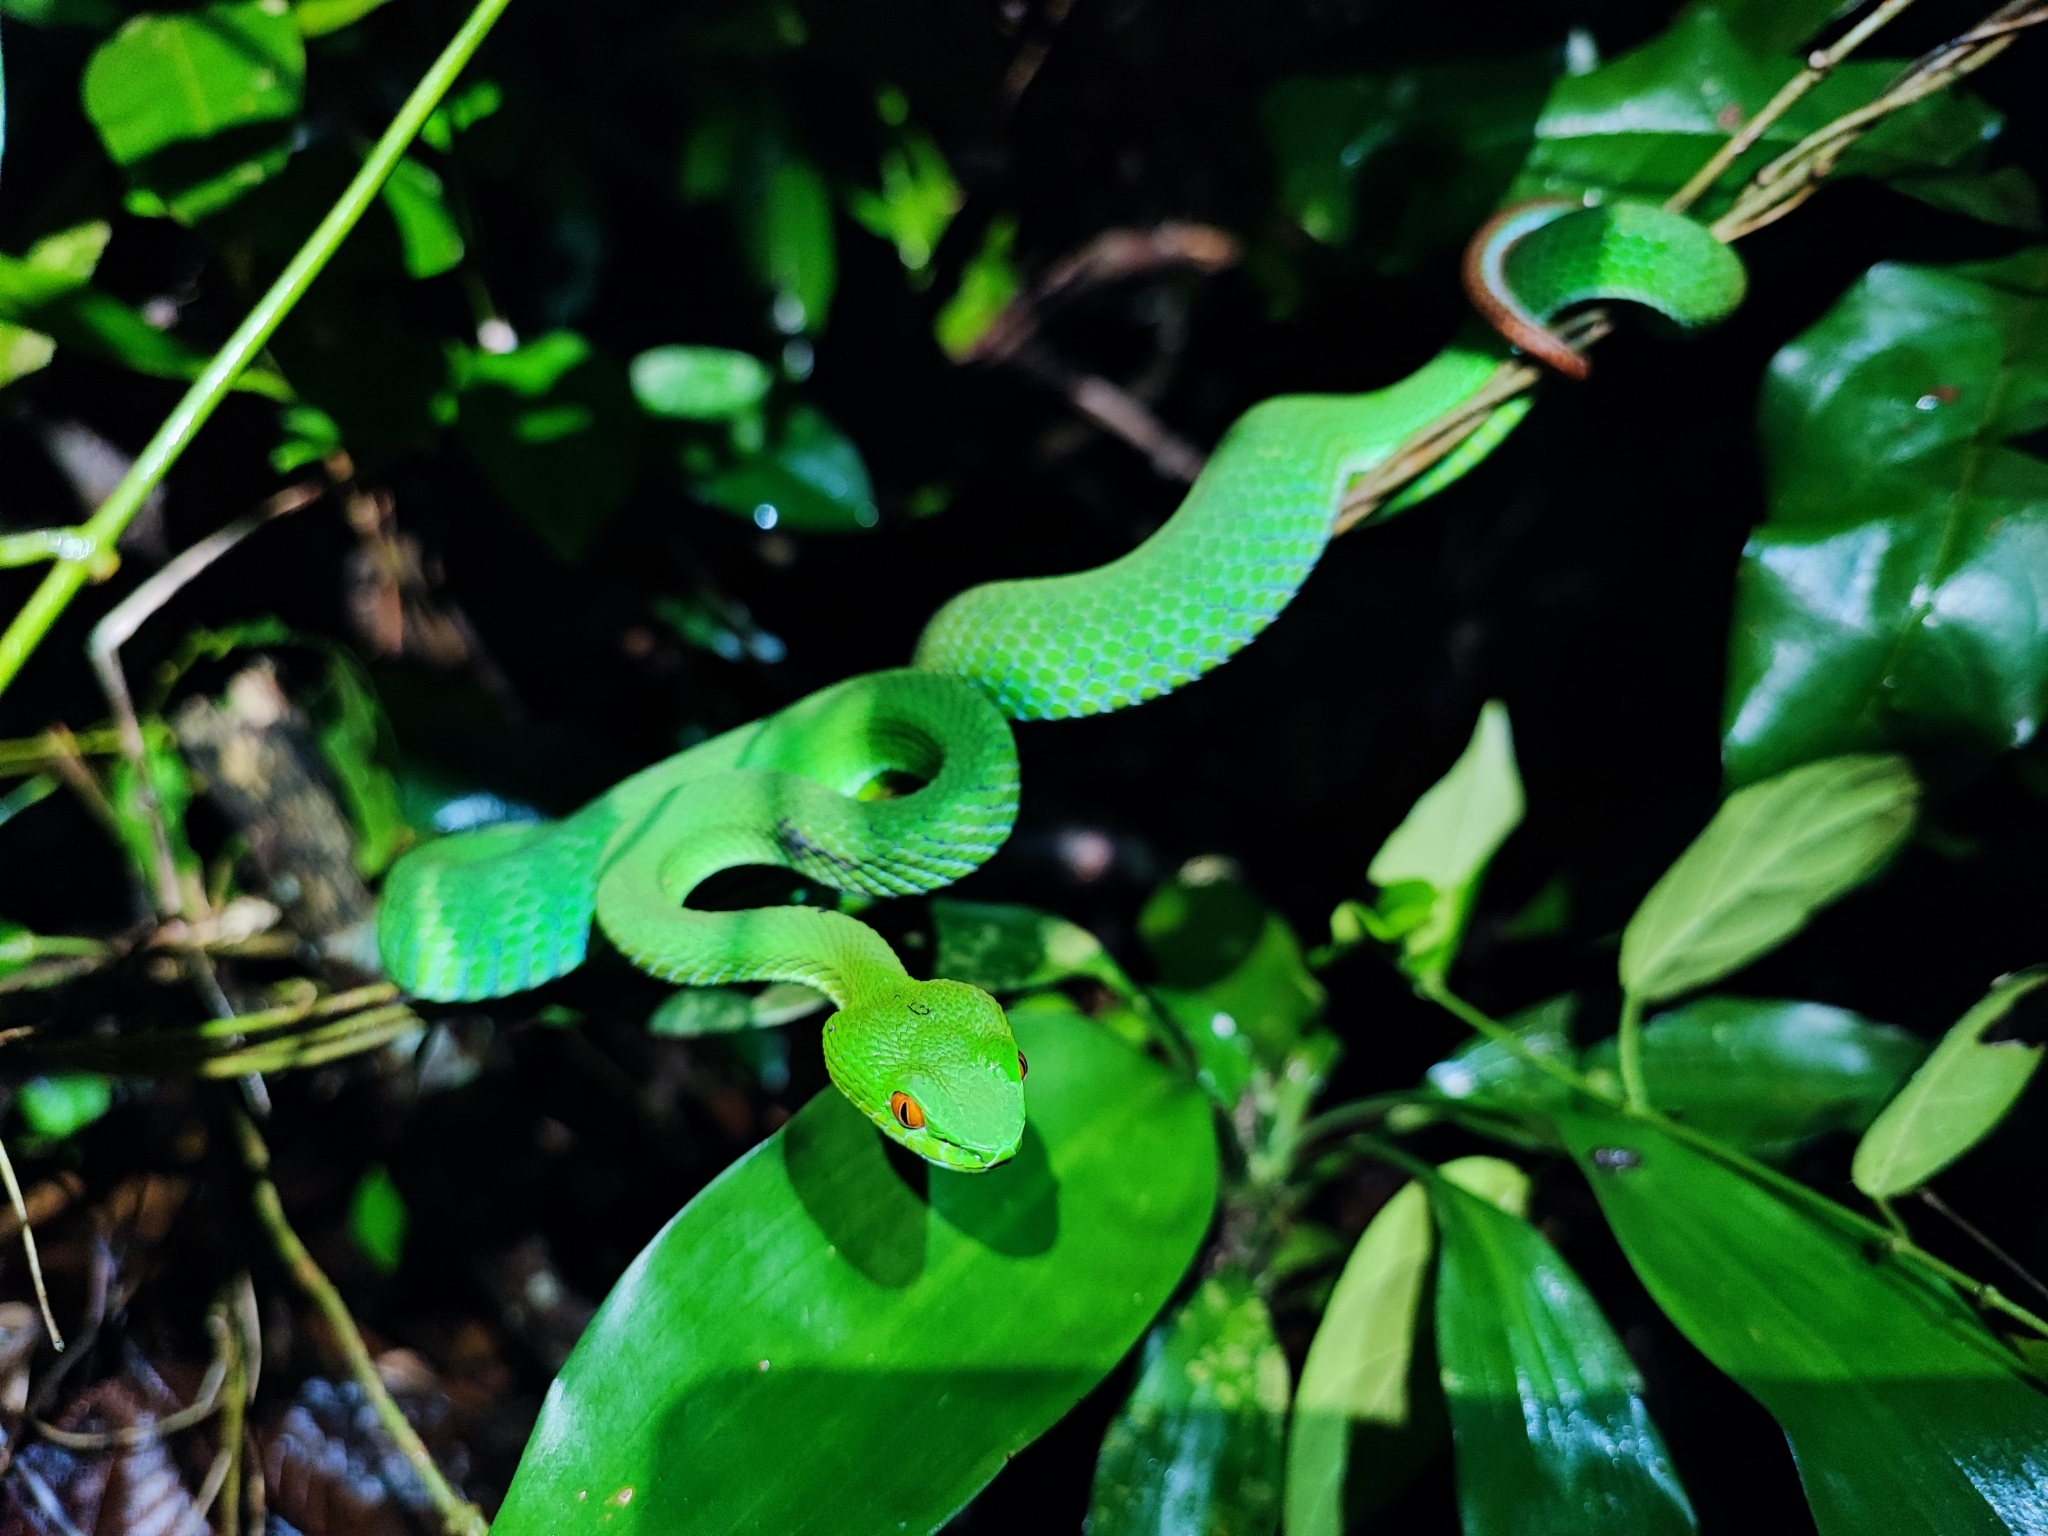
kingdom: Animalia
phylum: Chordata
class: Squamata
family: Viperidae
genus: Craspedocephalus
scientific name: Craspedocephalus rubeus
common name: Ruby-eyed green pitviper
